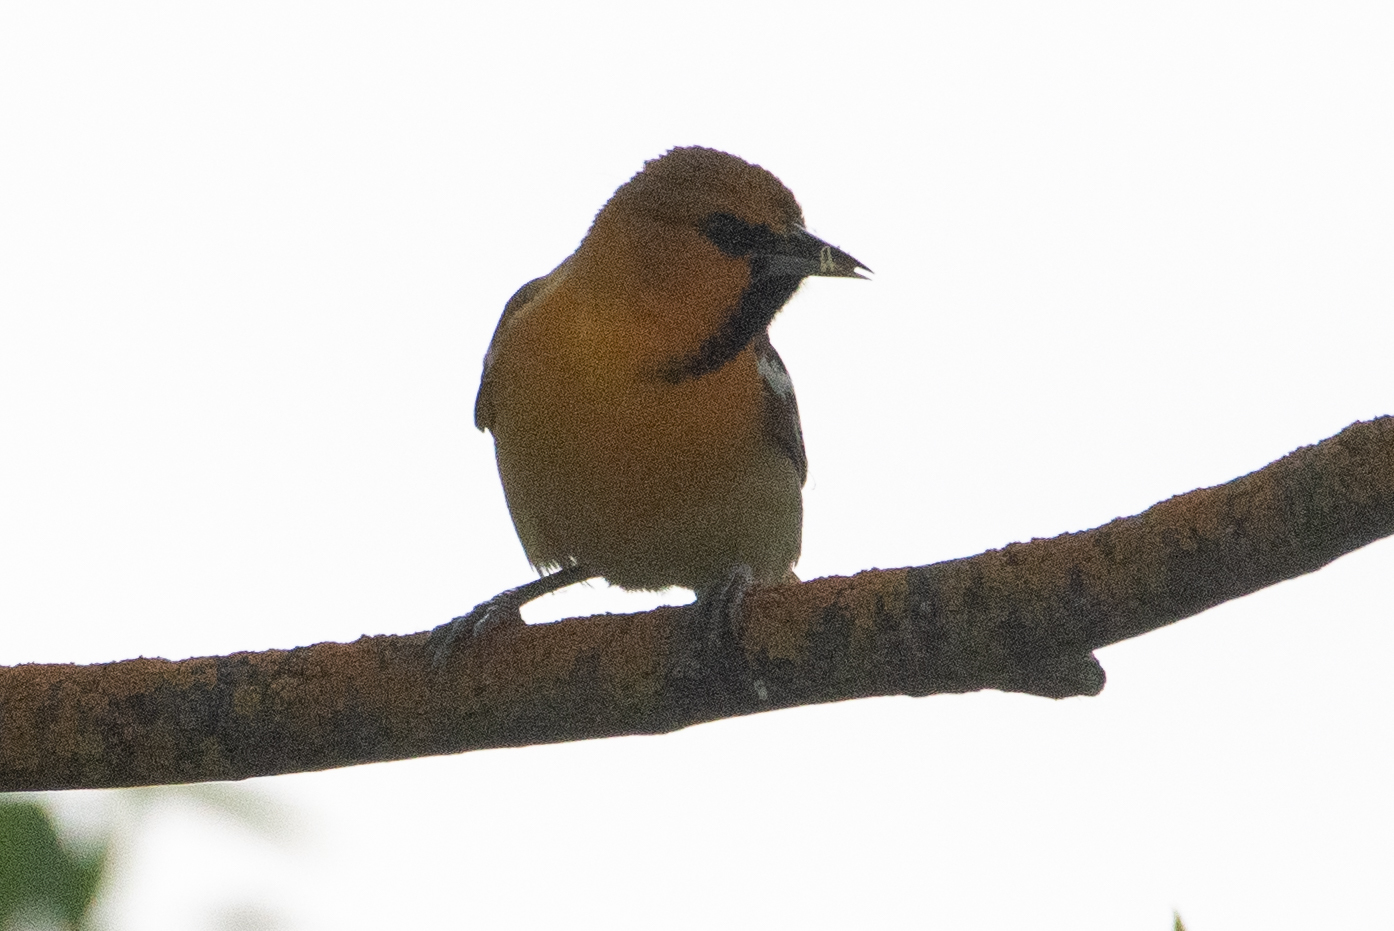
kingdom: Animalia
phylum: Chordata
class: Aves
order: Passeriformes
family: Icteridae
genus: Icterus
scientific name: Icterus bullockii
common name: Bullock's oriole
